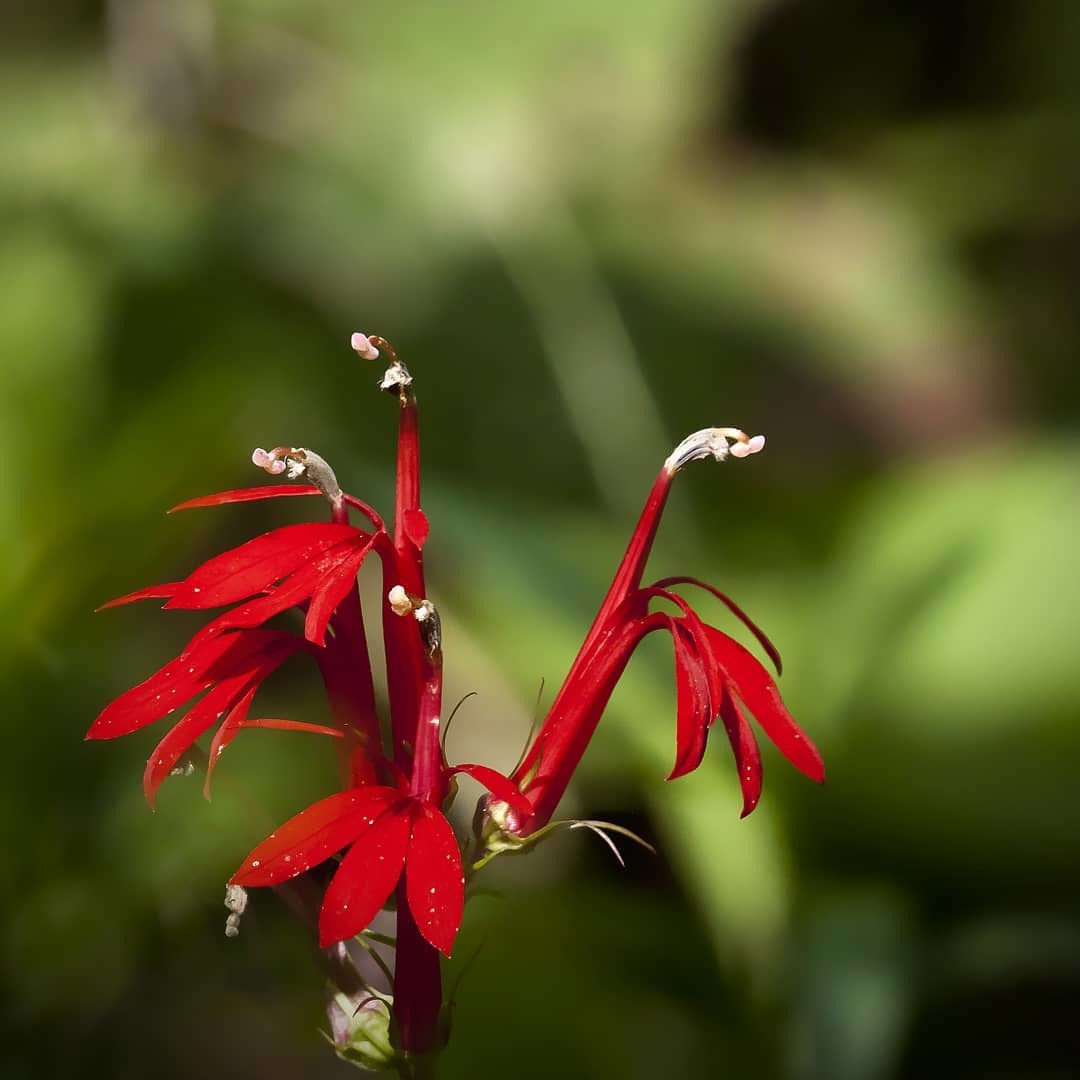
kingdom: Plantae
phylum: Tracheophyta
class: Magnoliopsida
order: Asterales
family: Campanulaceae
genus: Lobelia
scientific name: Lobelia cardinalis
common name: Cardinal flower
